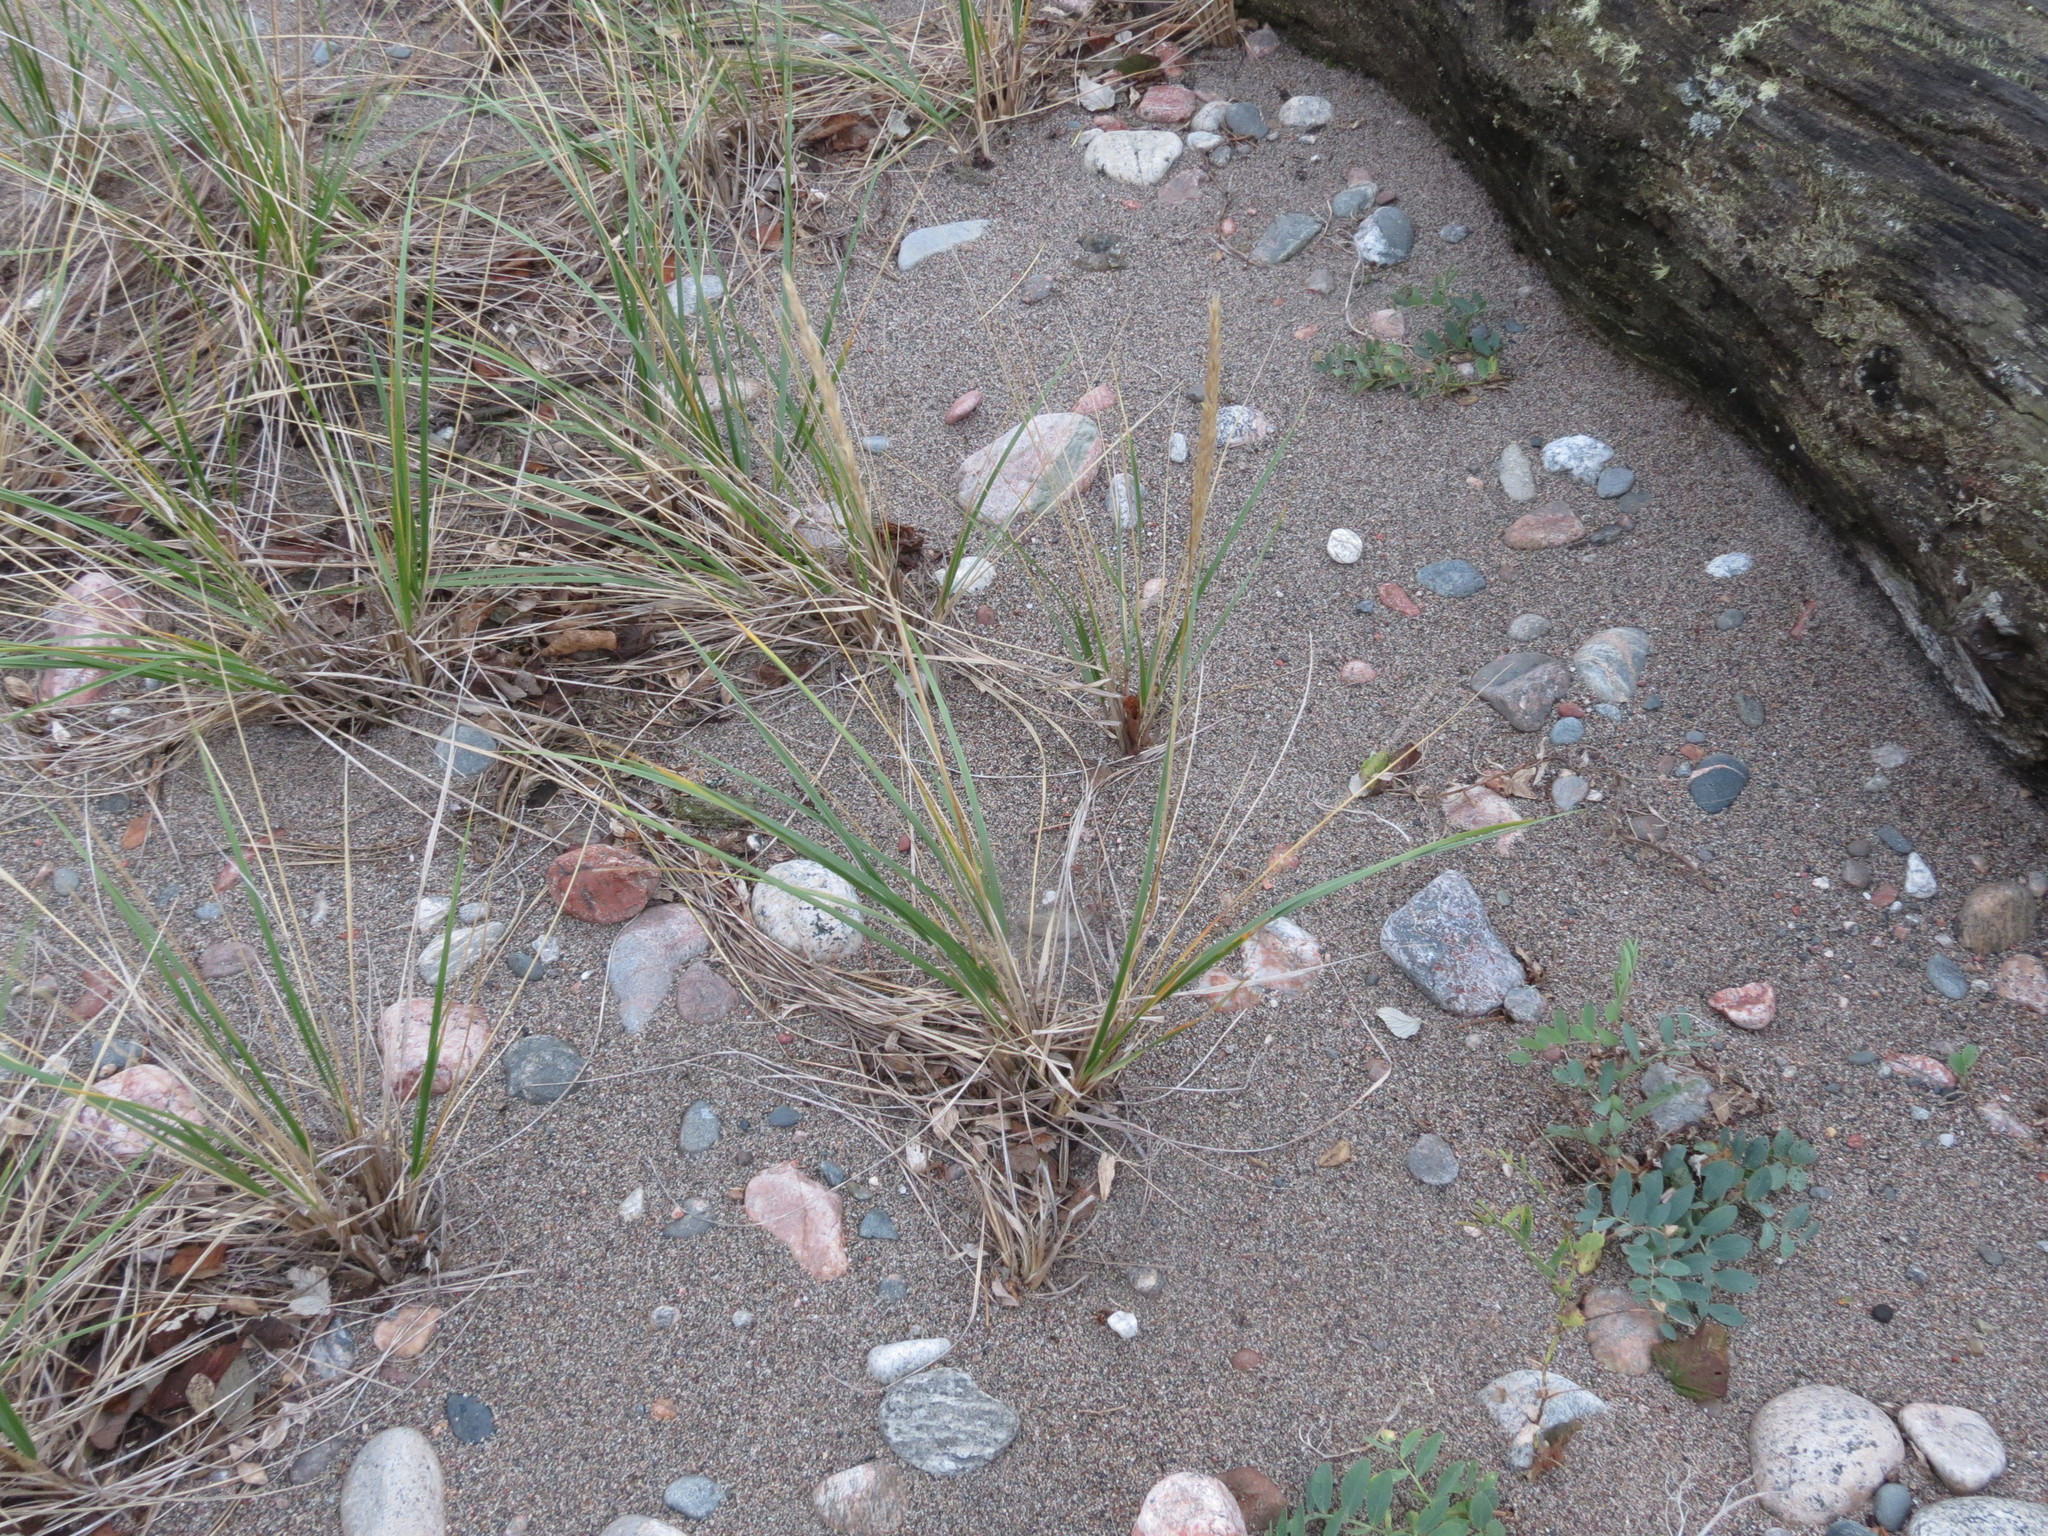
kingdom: Plantae
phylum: Tracheophyta
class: Liliopsida
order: Poales
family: Poaceae
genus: Calamagrostis
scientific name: Calamagrostis breviligulata
